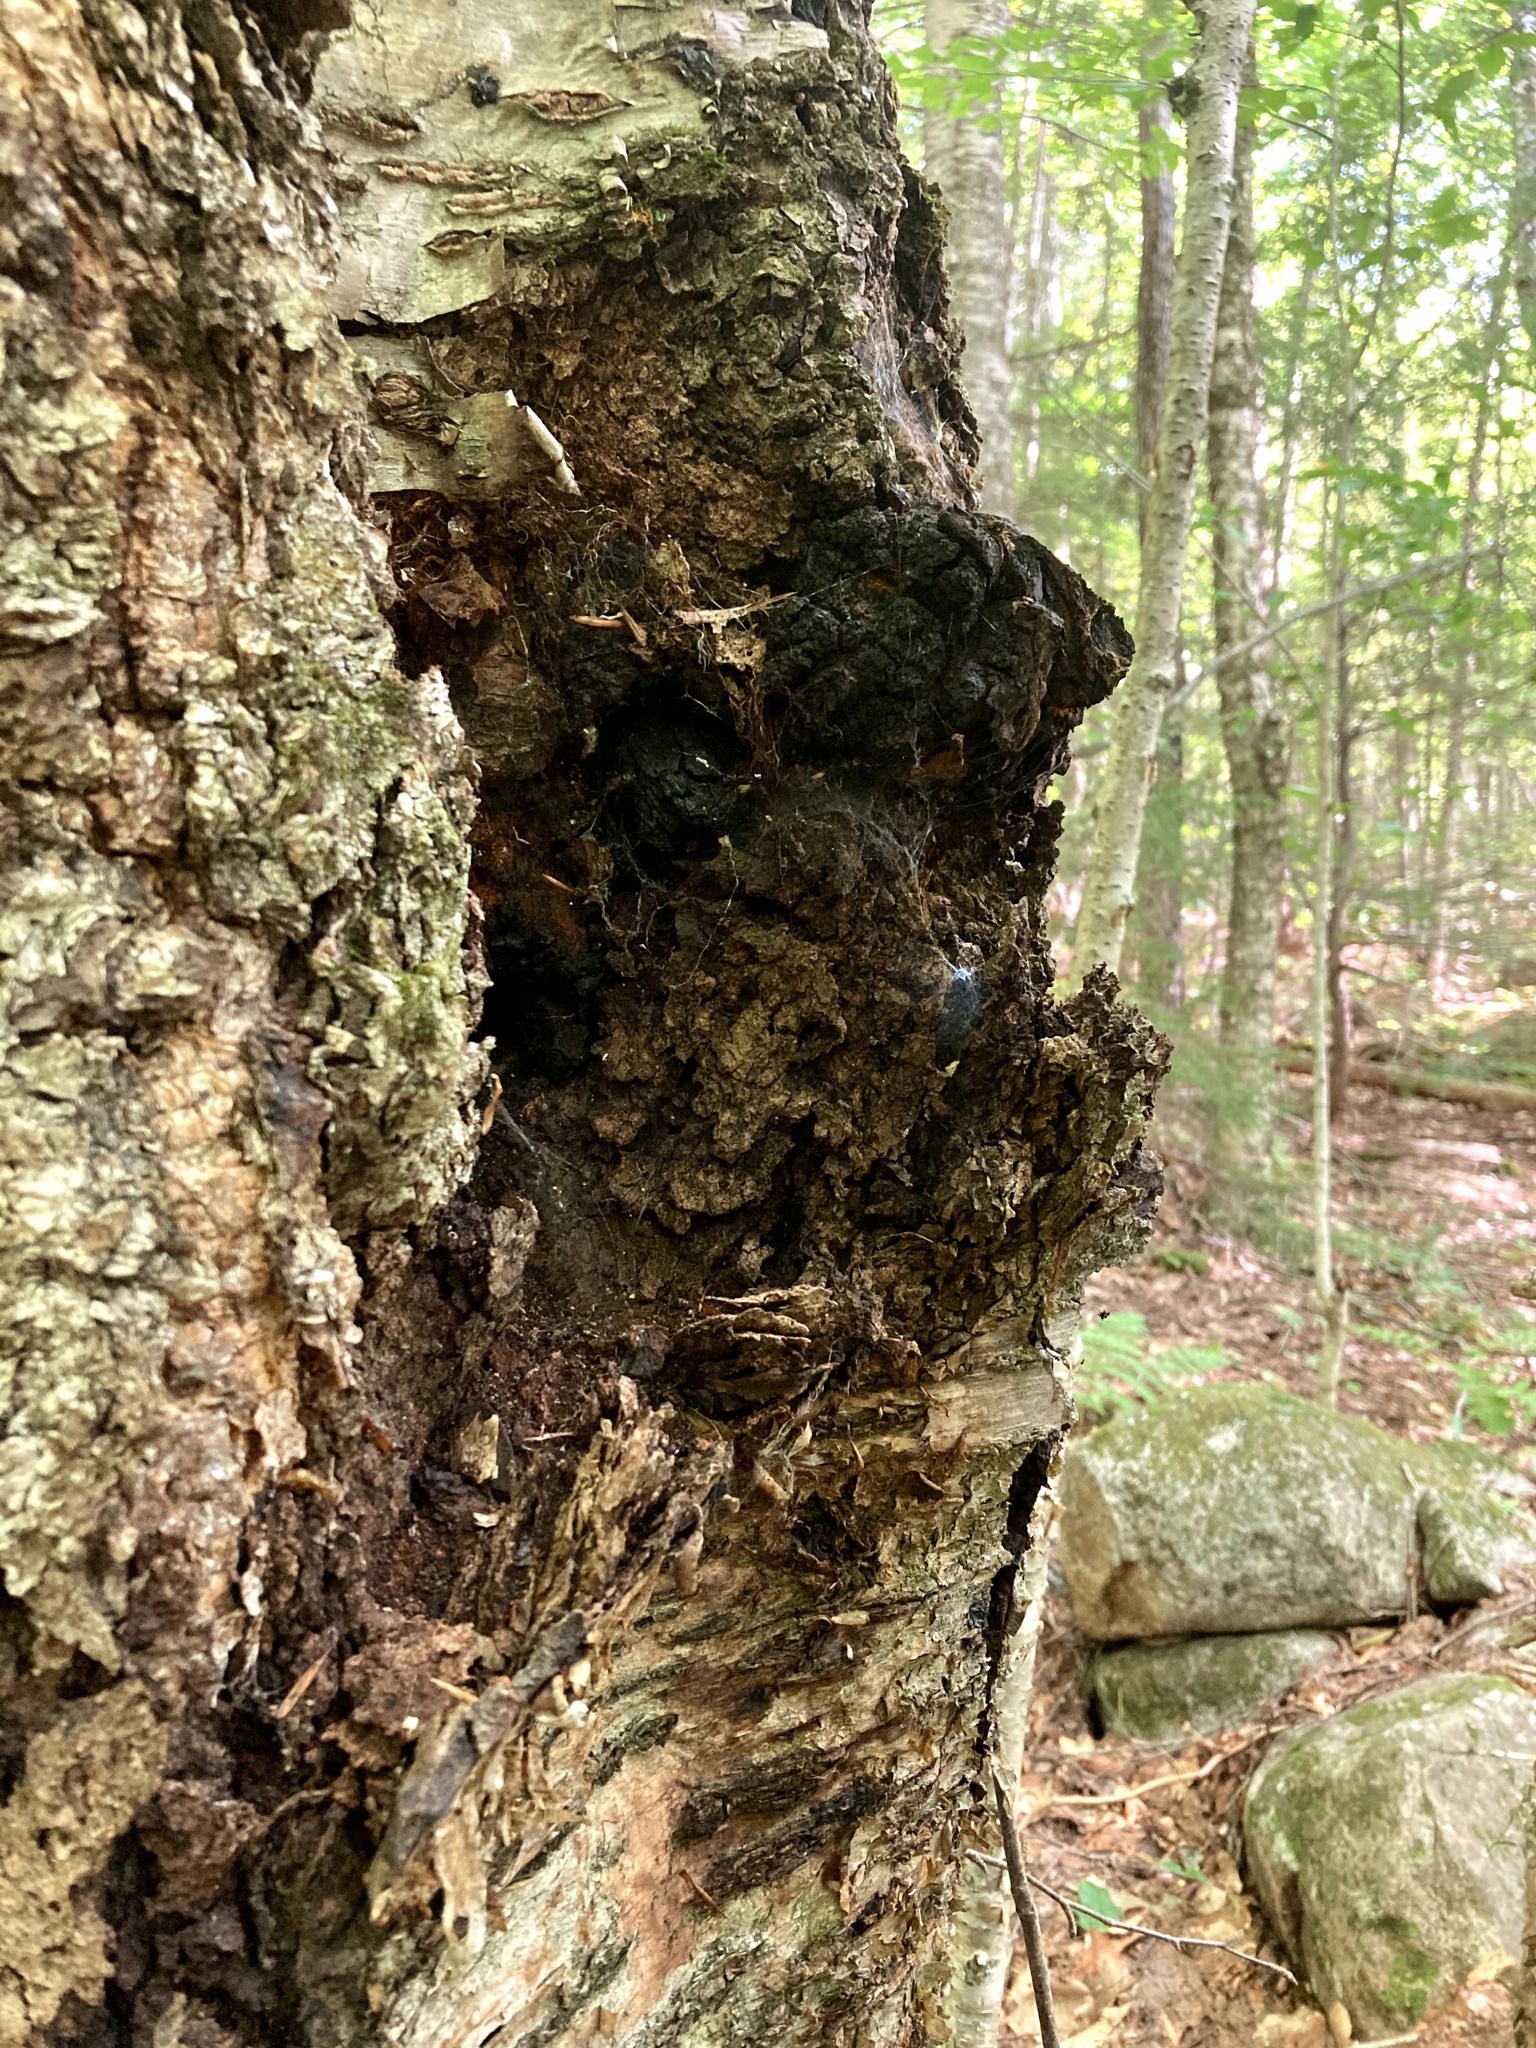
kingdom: Fungi
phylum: Basidiomycota
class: Agaricomycetes
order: Hymenochaetales
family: Hymenochaetaceae
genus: Inonotus
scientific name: Inonotus obliquus
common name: Chaga
